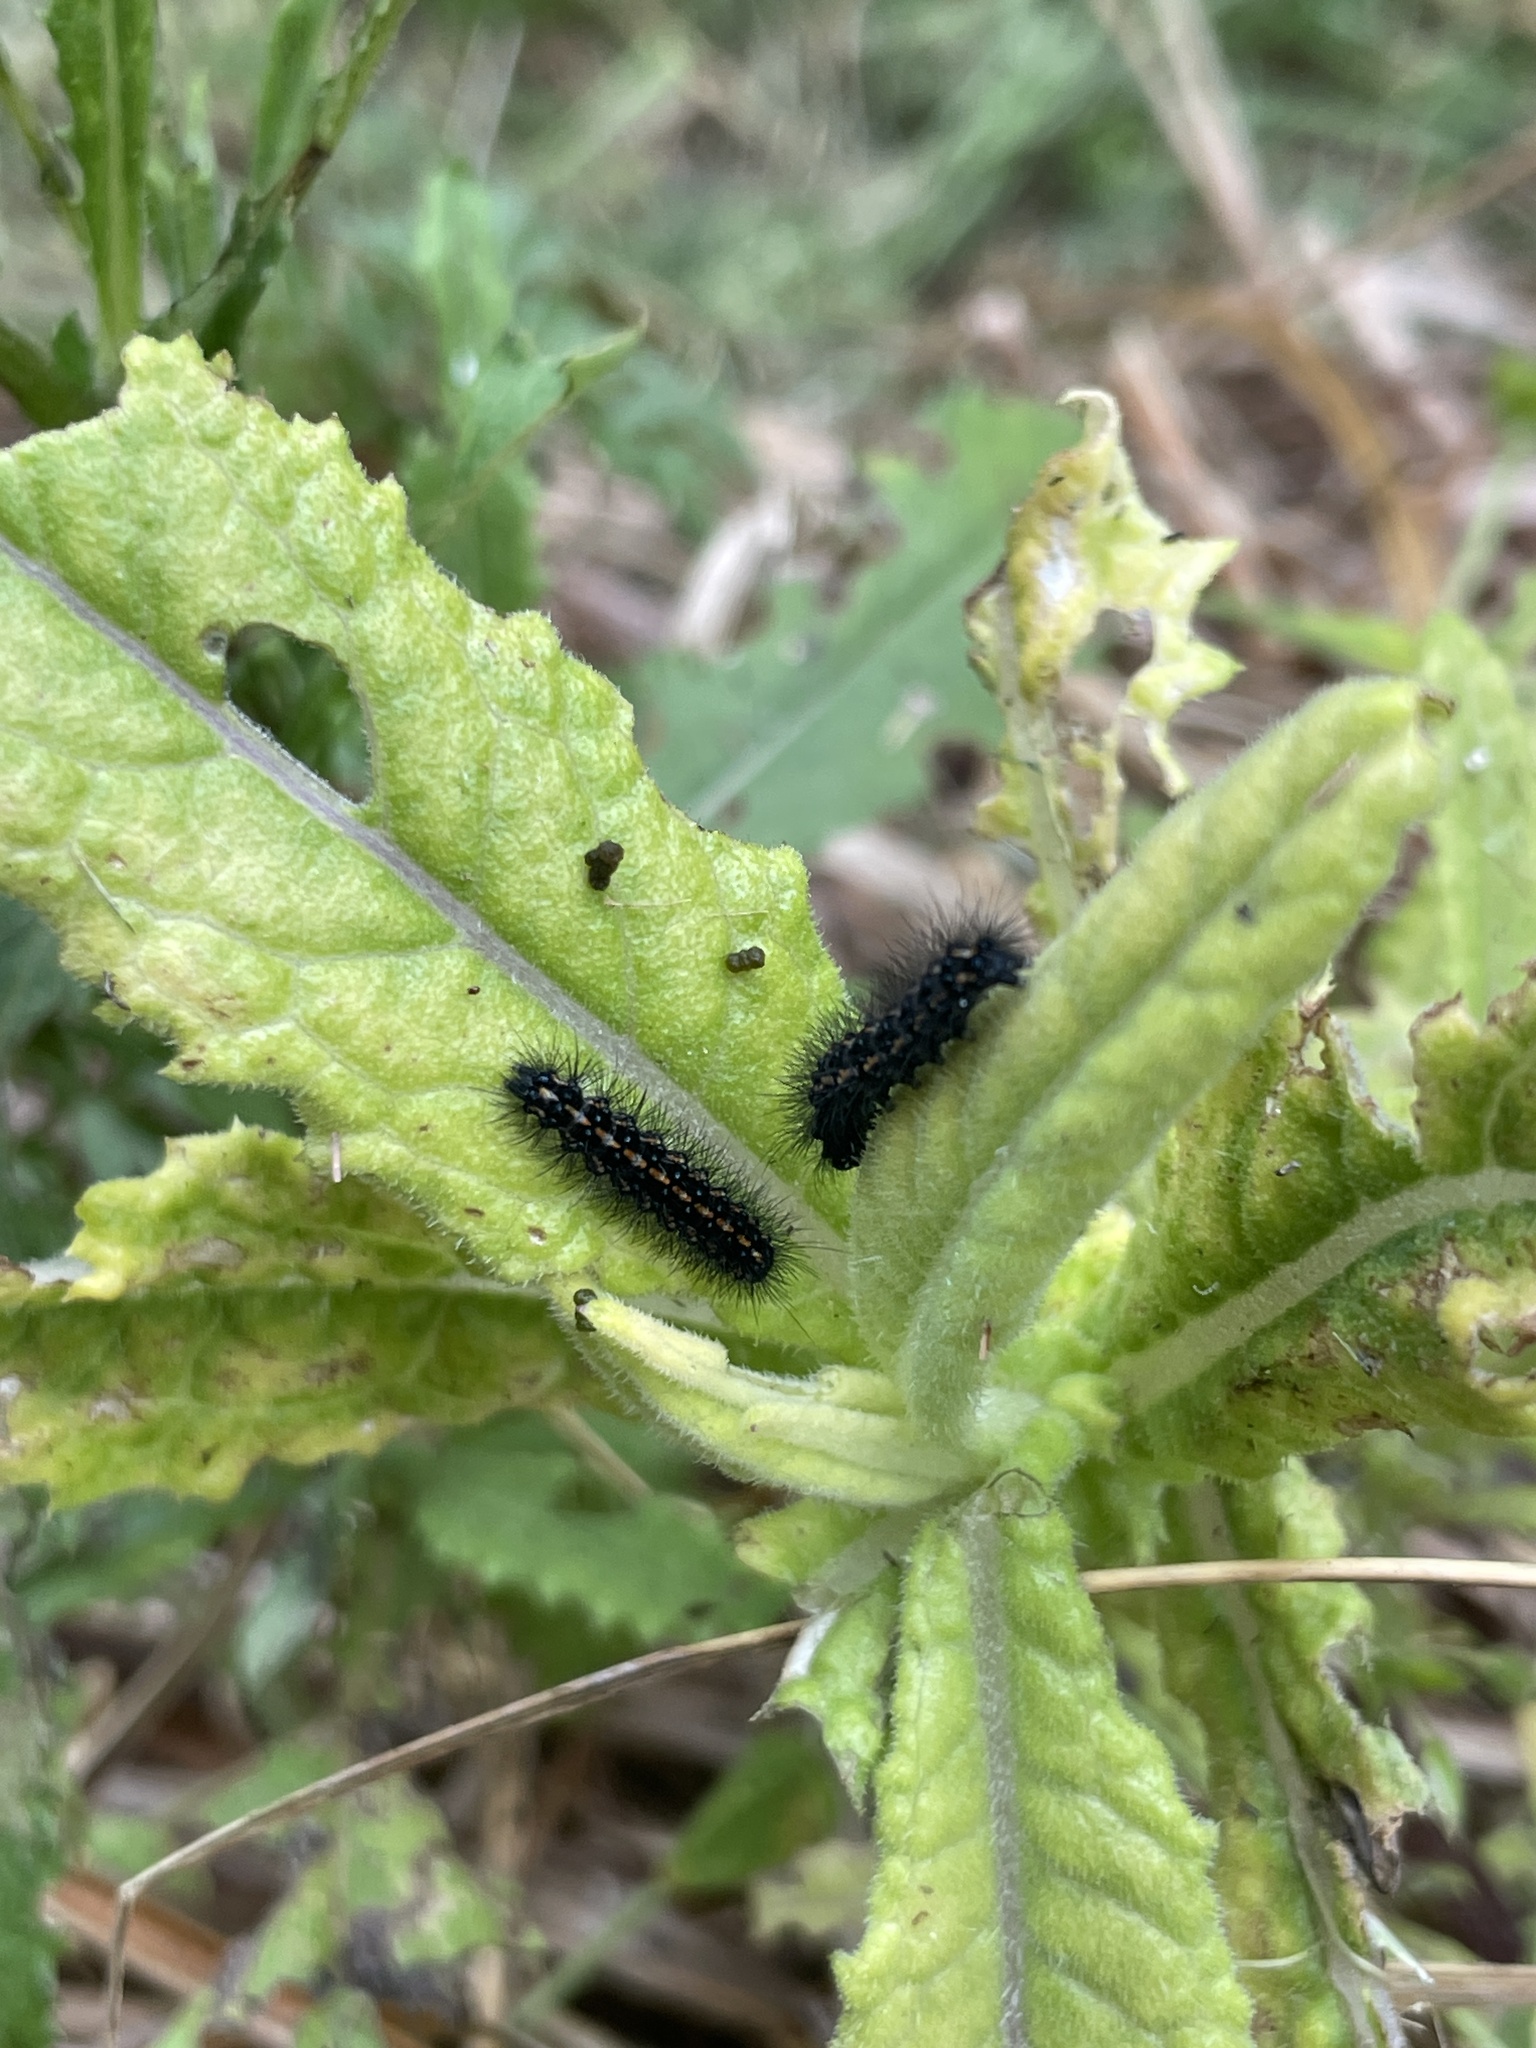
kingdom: Animalia
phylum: Arthropoda
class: Insecta
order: Lepidoptera
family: Erebidae
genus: Nyctemera
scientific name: Nyctemera annulatum
